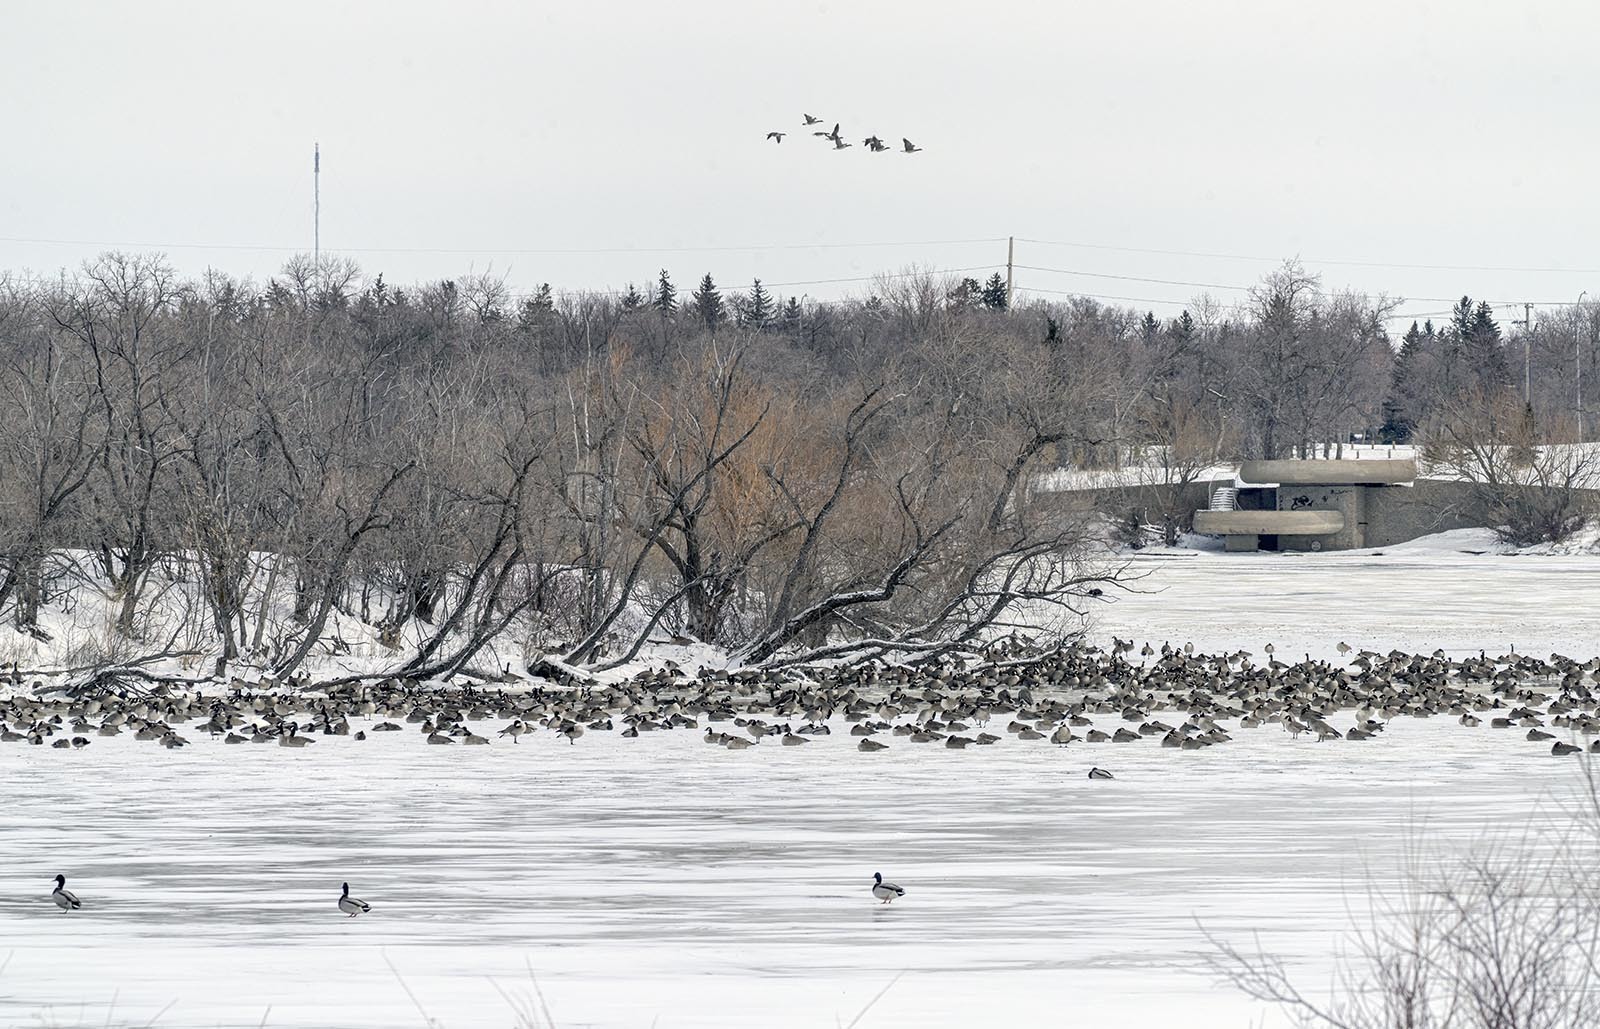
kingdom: Animalia
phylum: Chordata
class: Aves
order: Anseriformes
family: Anatidae
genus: Branta
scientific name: Branta canadensis
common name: Canada goose
